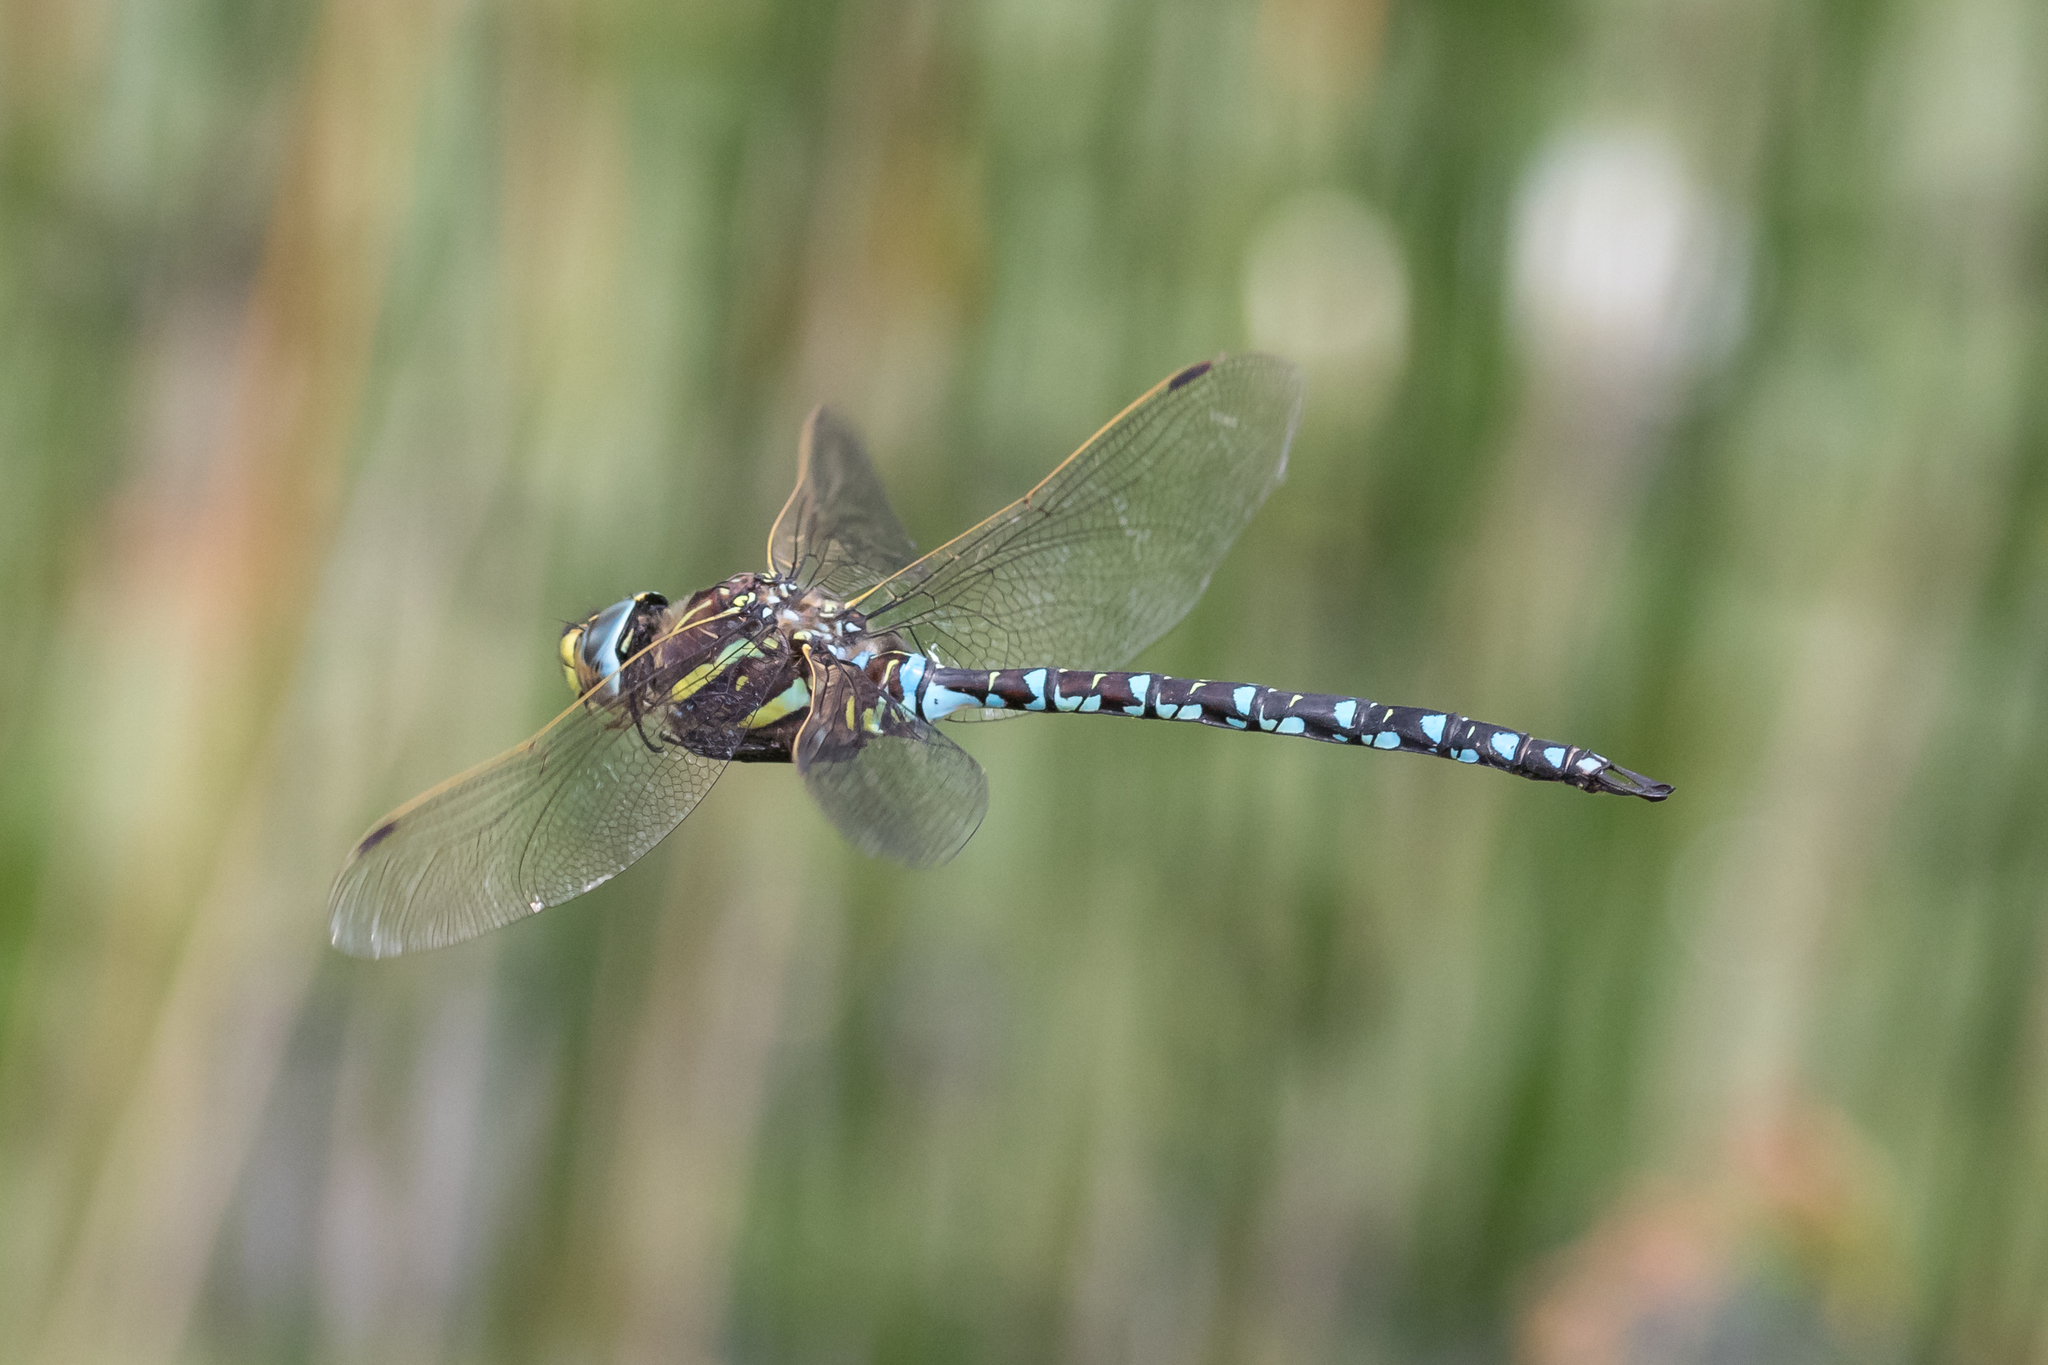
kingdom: Animalia
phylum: Arthropoda
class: Insecta
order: Odonata
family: Aeshnidae
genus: Aeshna
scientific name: Aeshna juncea
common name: Moorland hawker
